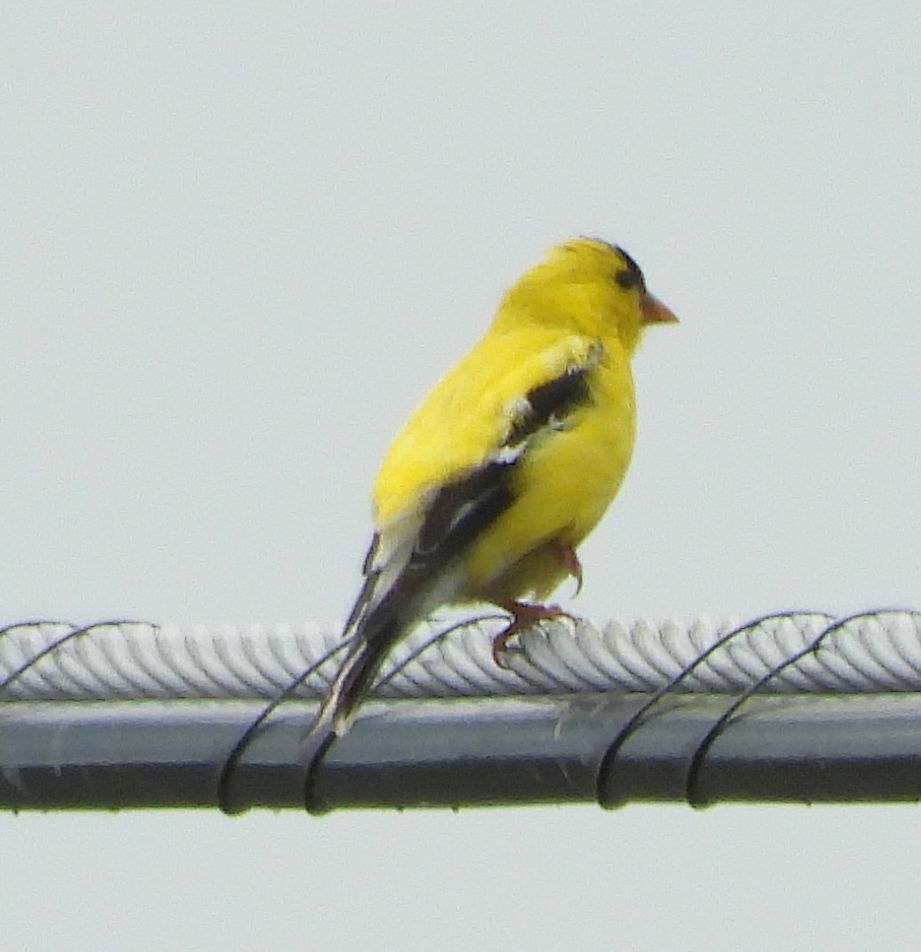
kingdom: Animalia
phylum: Chordata
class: Aves
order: Passeriformes
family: Fringillidae
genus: Spinus
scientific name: Spinus tristis
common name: American goldfinch
